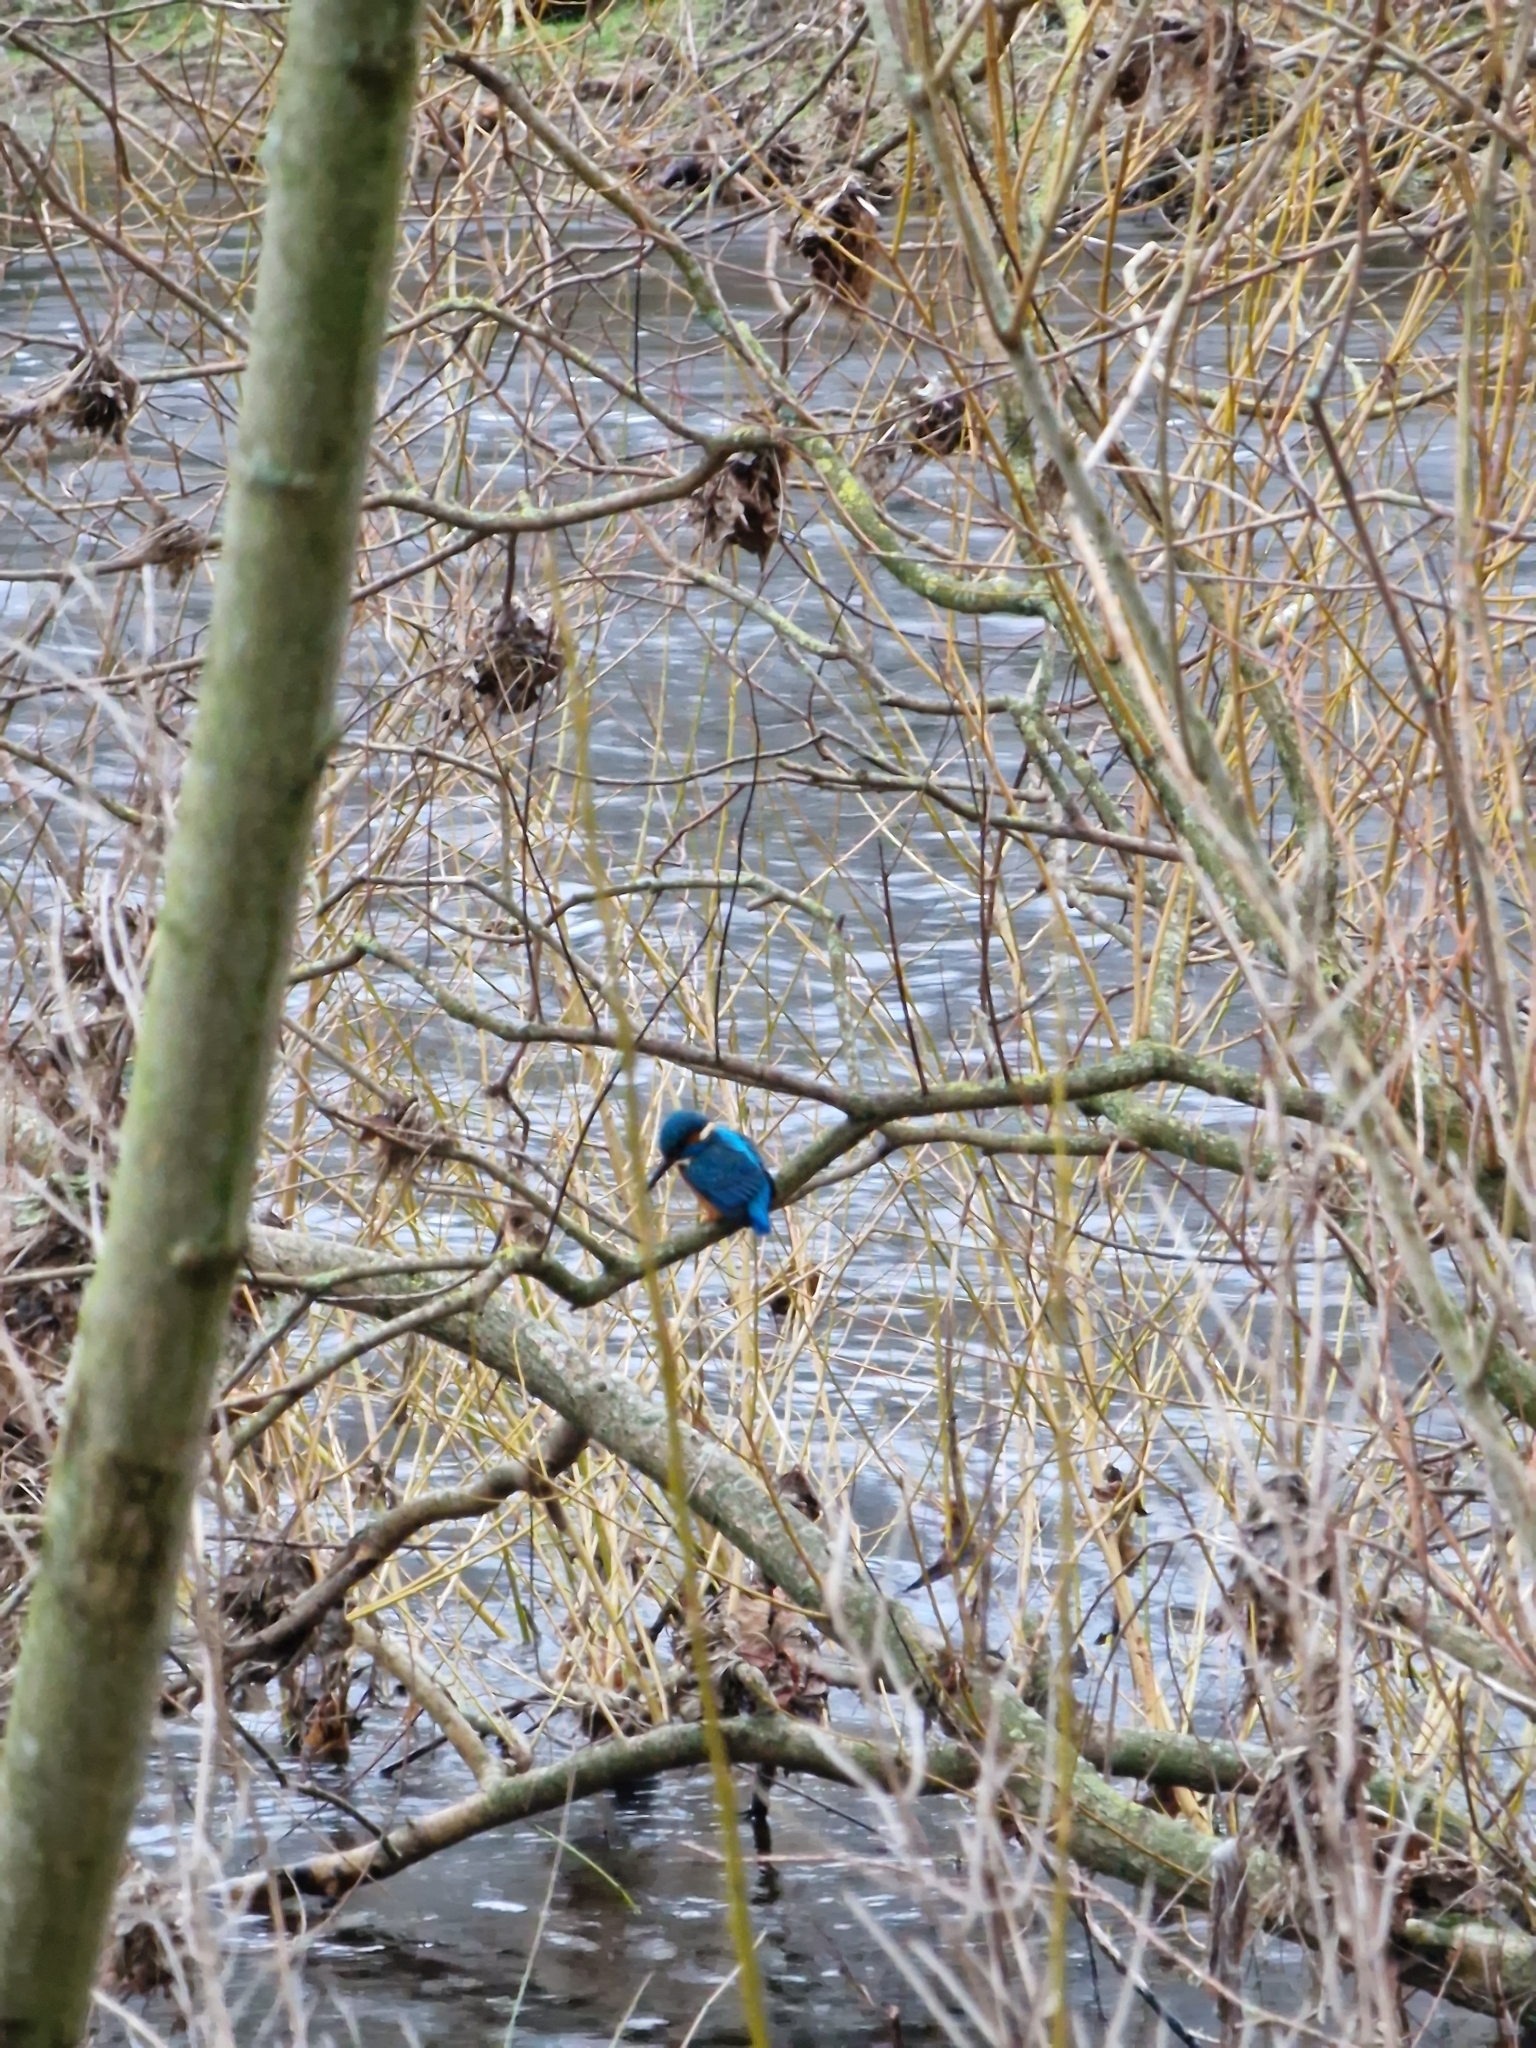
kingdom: Animalia
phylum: Chordata
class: Aves
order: Coraciiformes
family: Alcedinidae
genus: Alcedo
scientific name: Alcedo atthis
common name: Common kingfisher
